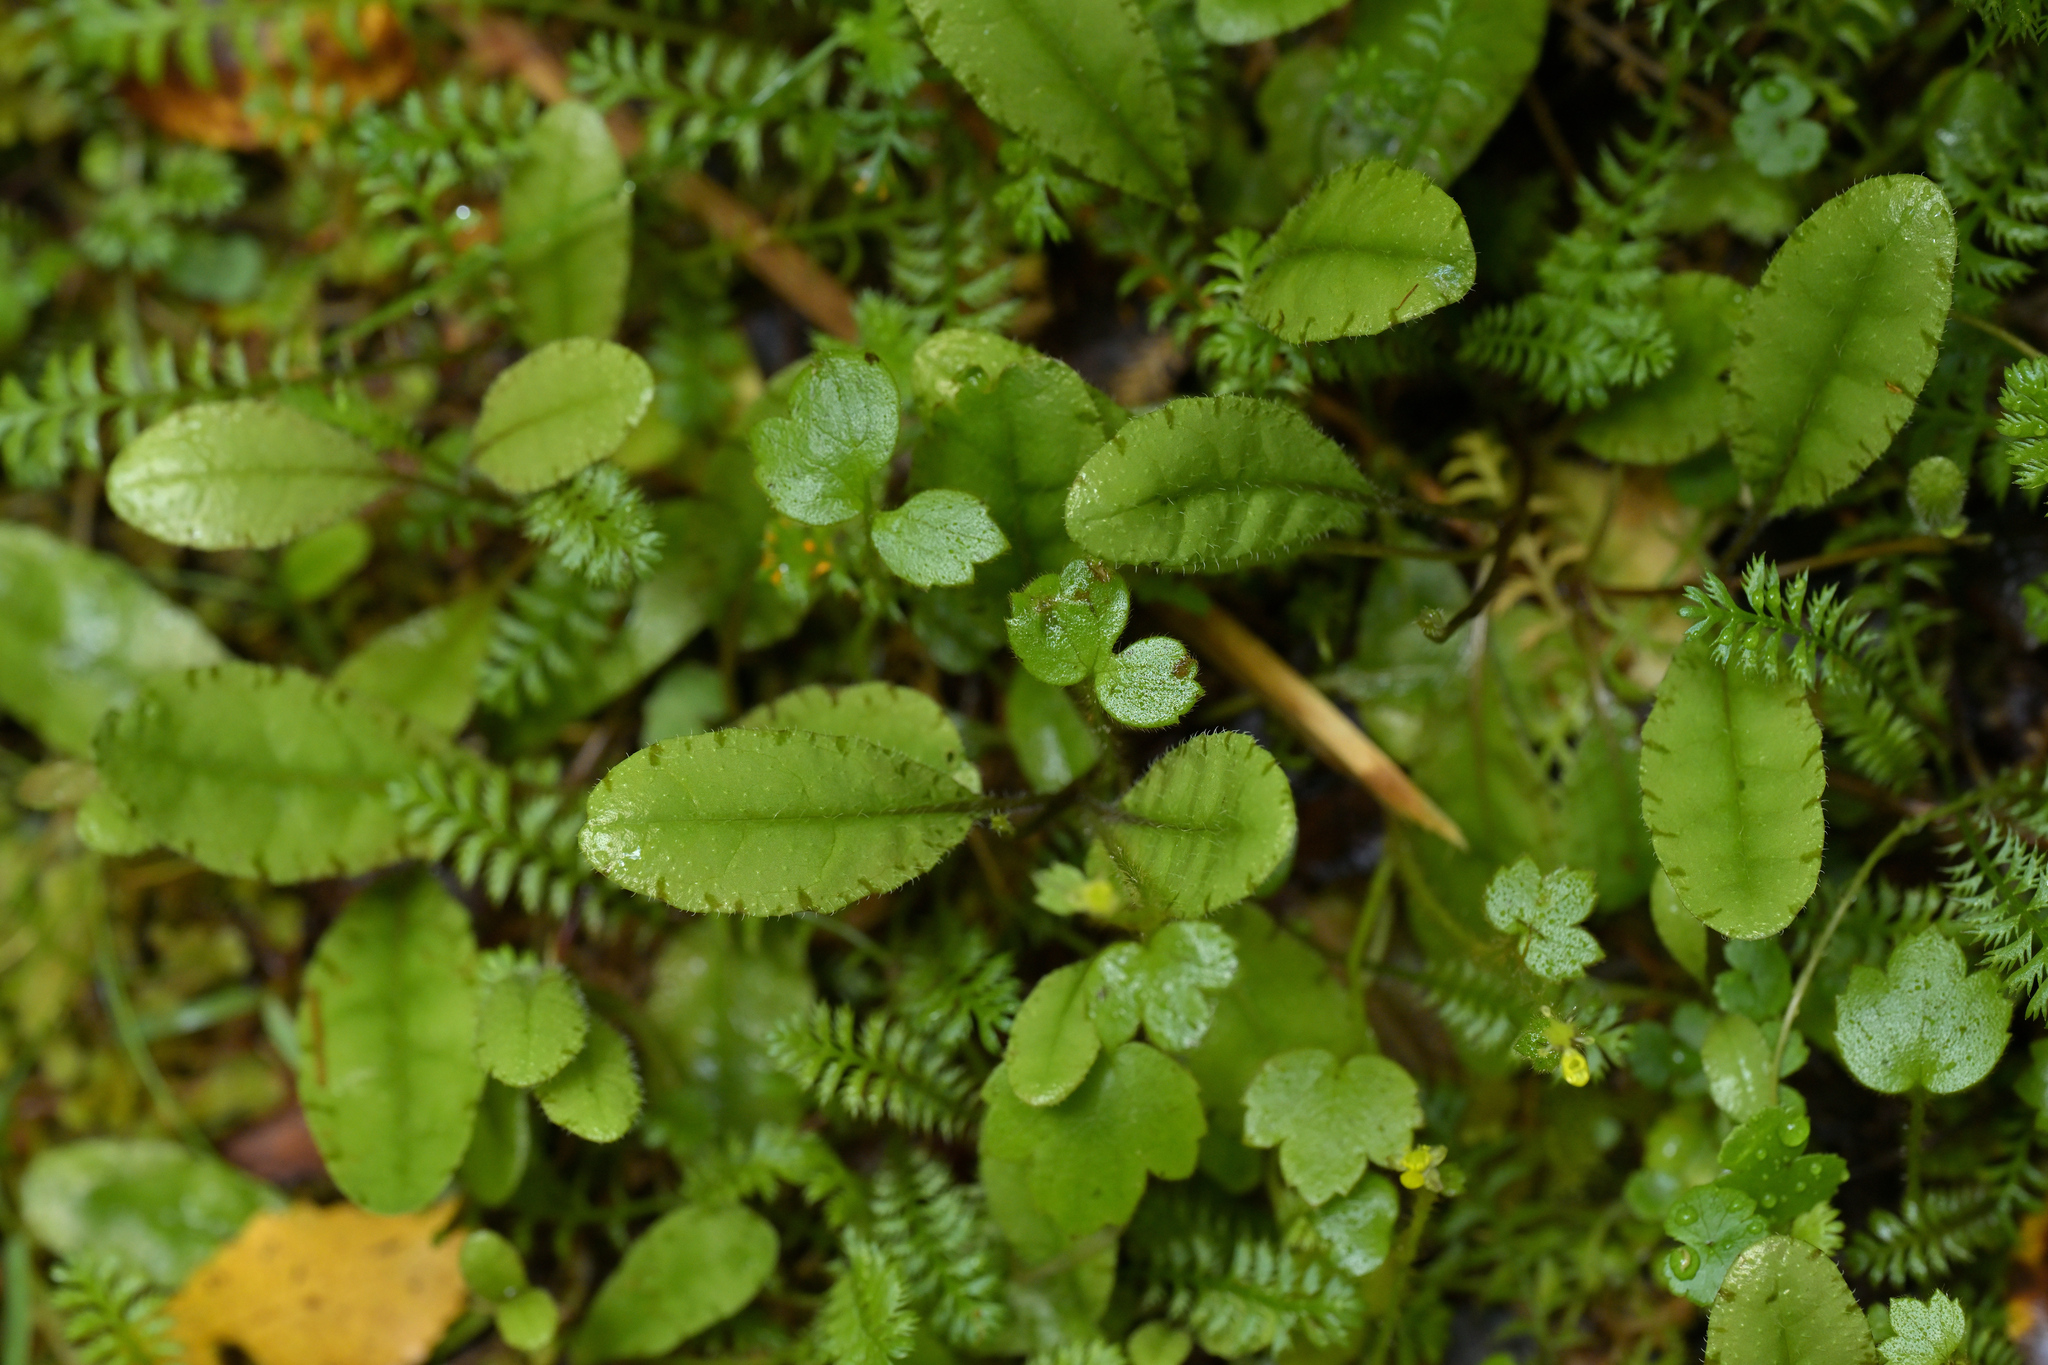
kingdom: Plantae
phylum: Tracheophyta
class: Magnoliopsida
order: Lamiales
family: Mazaceae
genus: Mazus
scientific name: Mazus radicans
